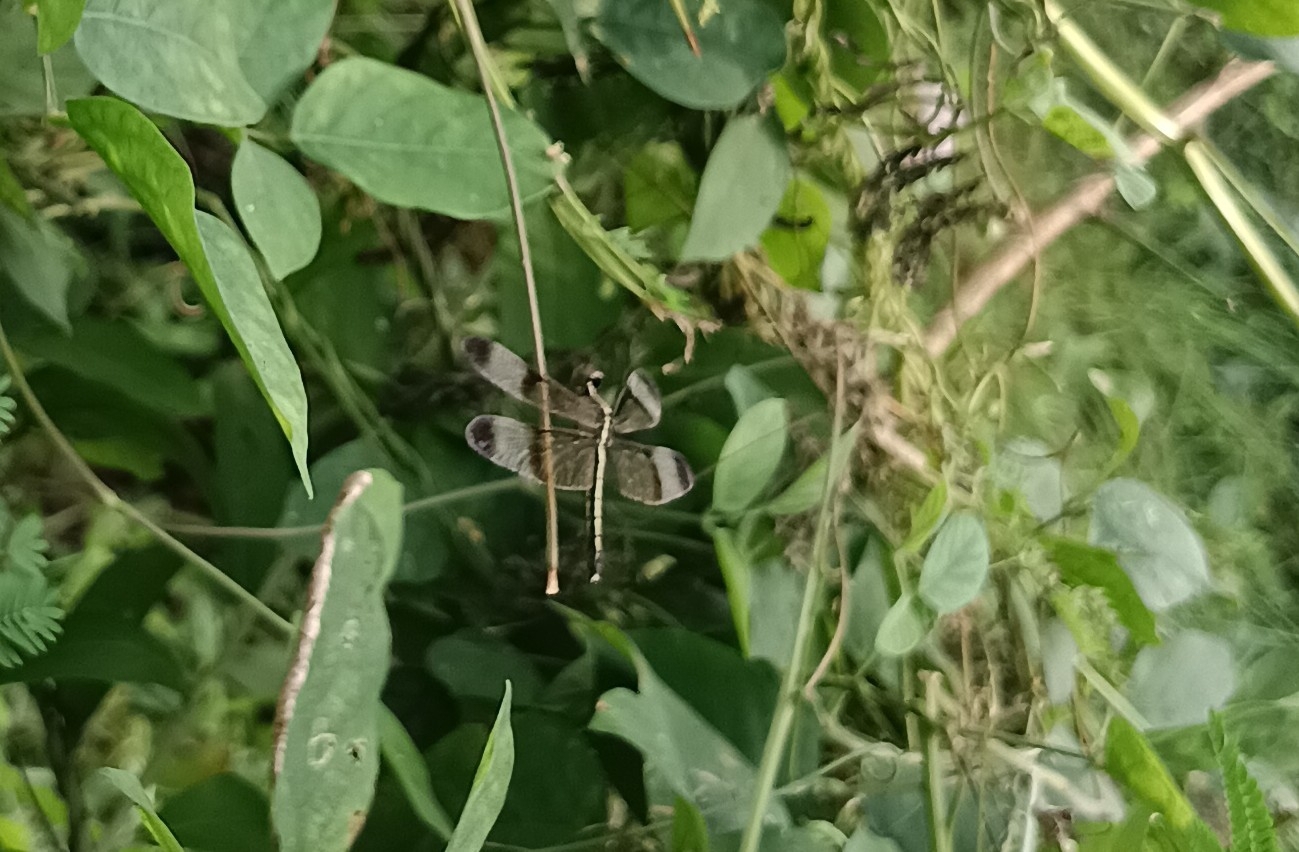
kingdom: Animalia
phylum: Arthropoda
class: Insecta
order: Odonata
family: Libellulidae
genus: Neurothemis
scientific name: Neurothemis tullia
